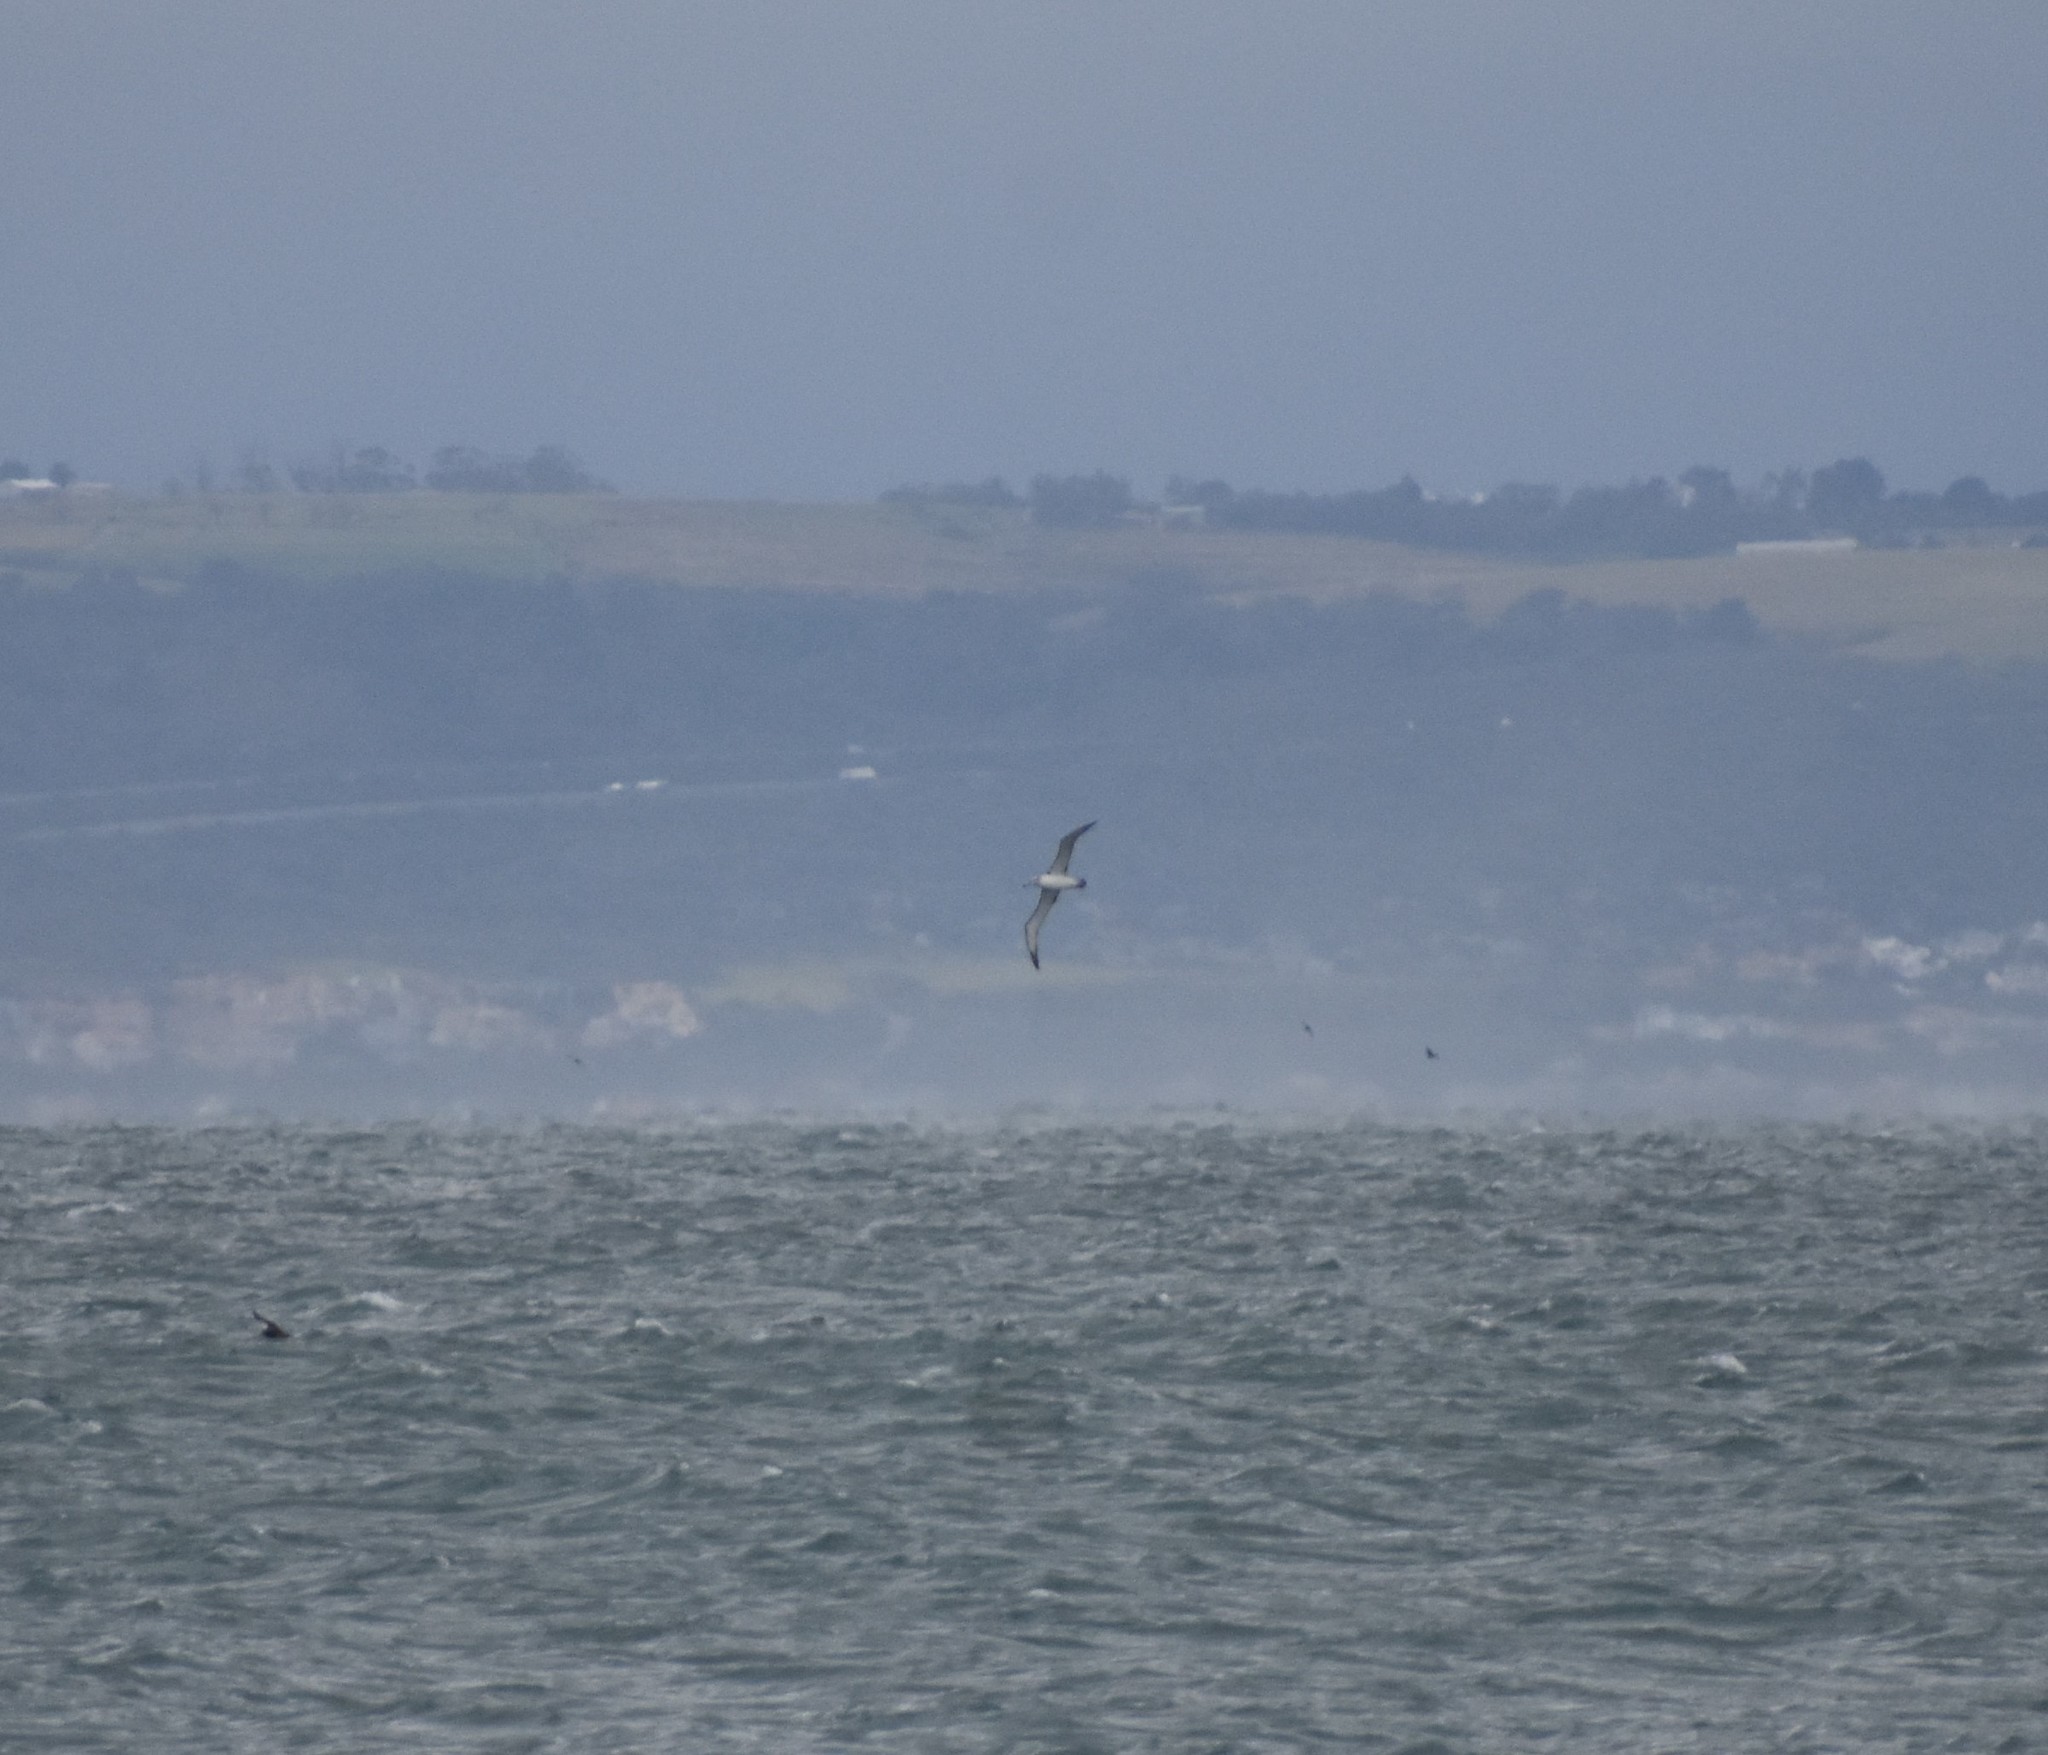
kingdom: Animalia
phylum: Chordata
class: Aves
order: Procellariiformes
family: Diomedeidae
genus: Thalassarche
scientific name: Thalassarche cauta
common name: Shy albatross
